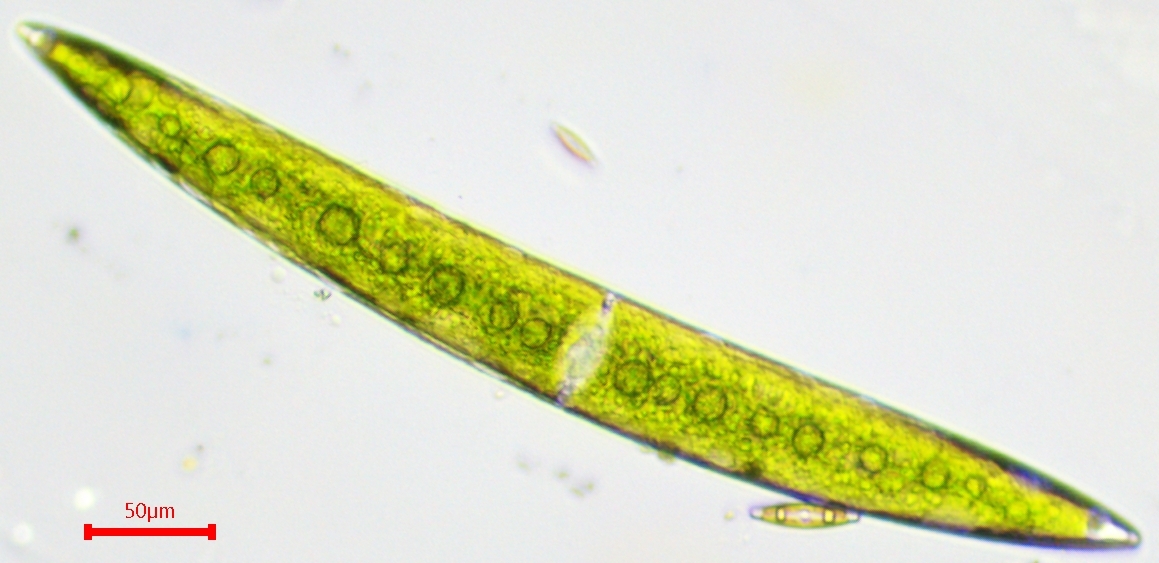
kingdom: Plantae
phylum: Charophyta
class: Zygnematophyceae
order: Zygnematales
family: Closteriaceae
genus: Closterium
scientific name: Closterium acerosum
